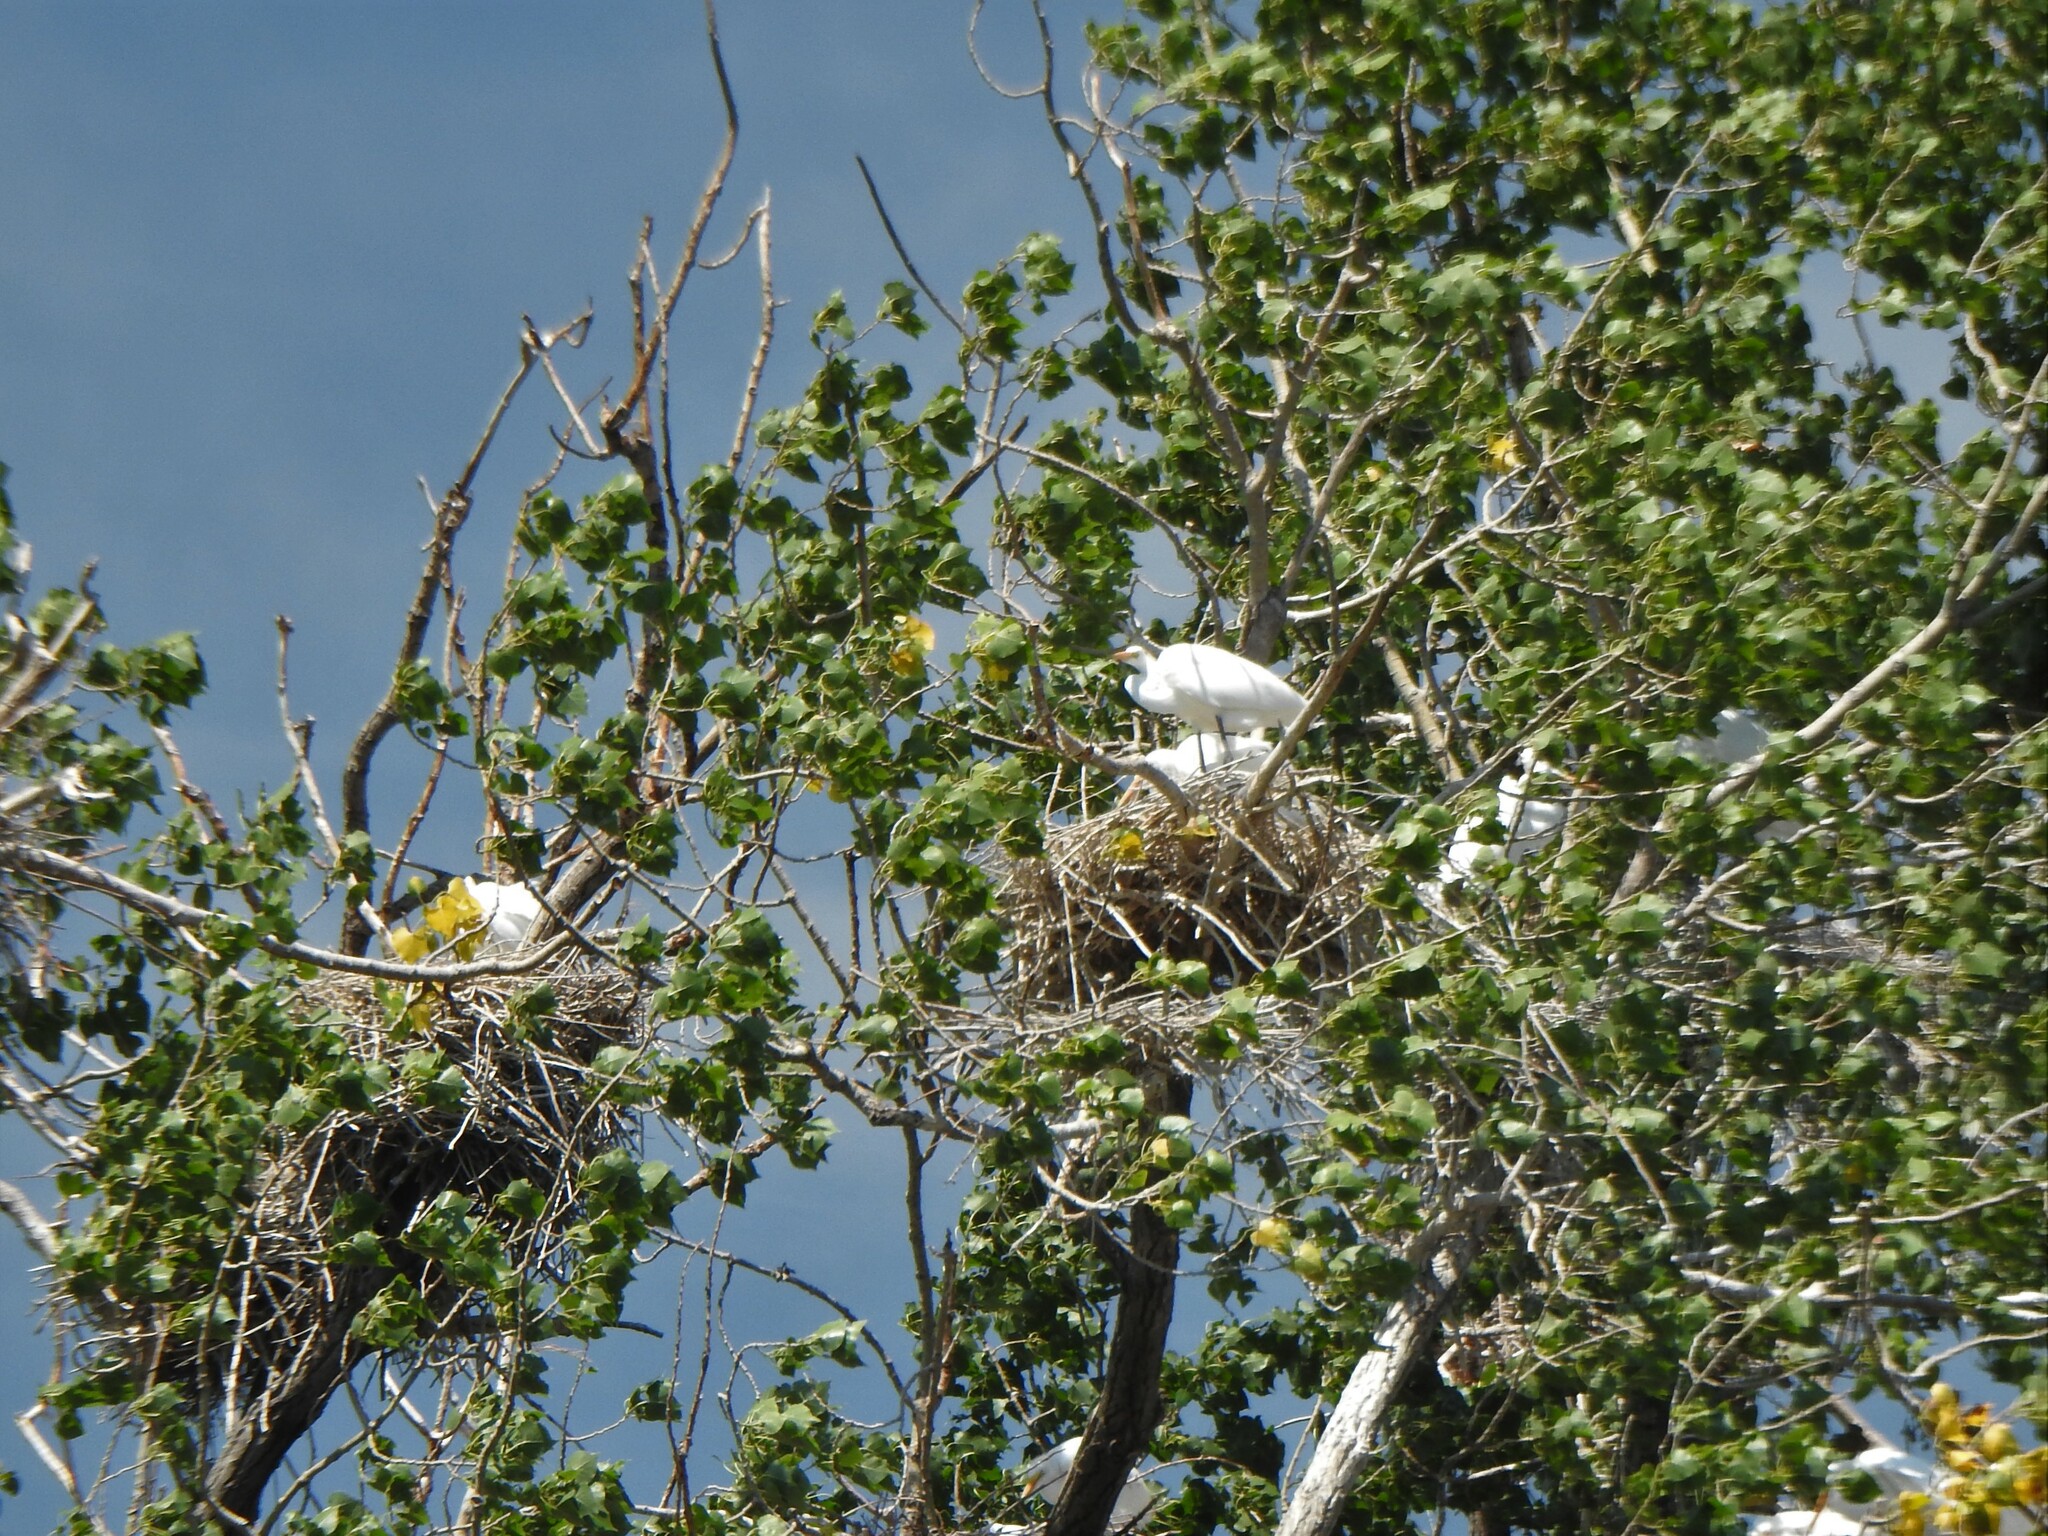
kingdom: Animalia
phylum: Chordata
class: Aves
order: Pelecaniformes
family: Ardeidae
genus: Ardea
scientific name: Ardea alba
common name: Great egret
